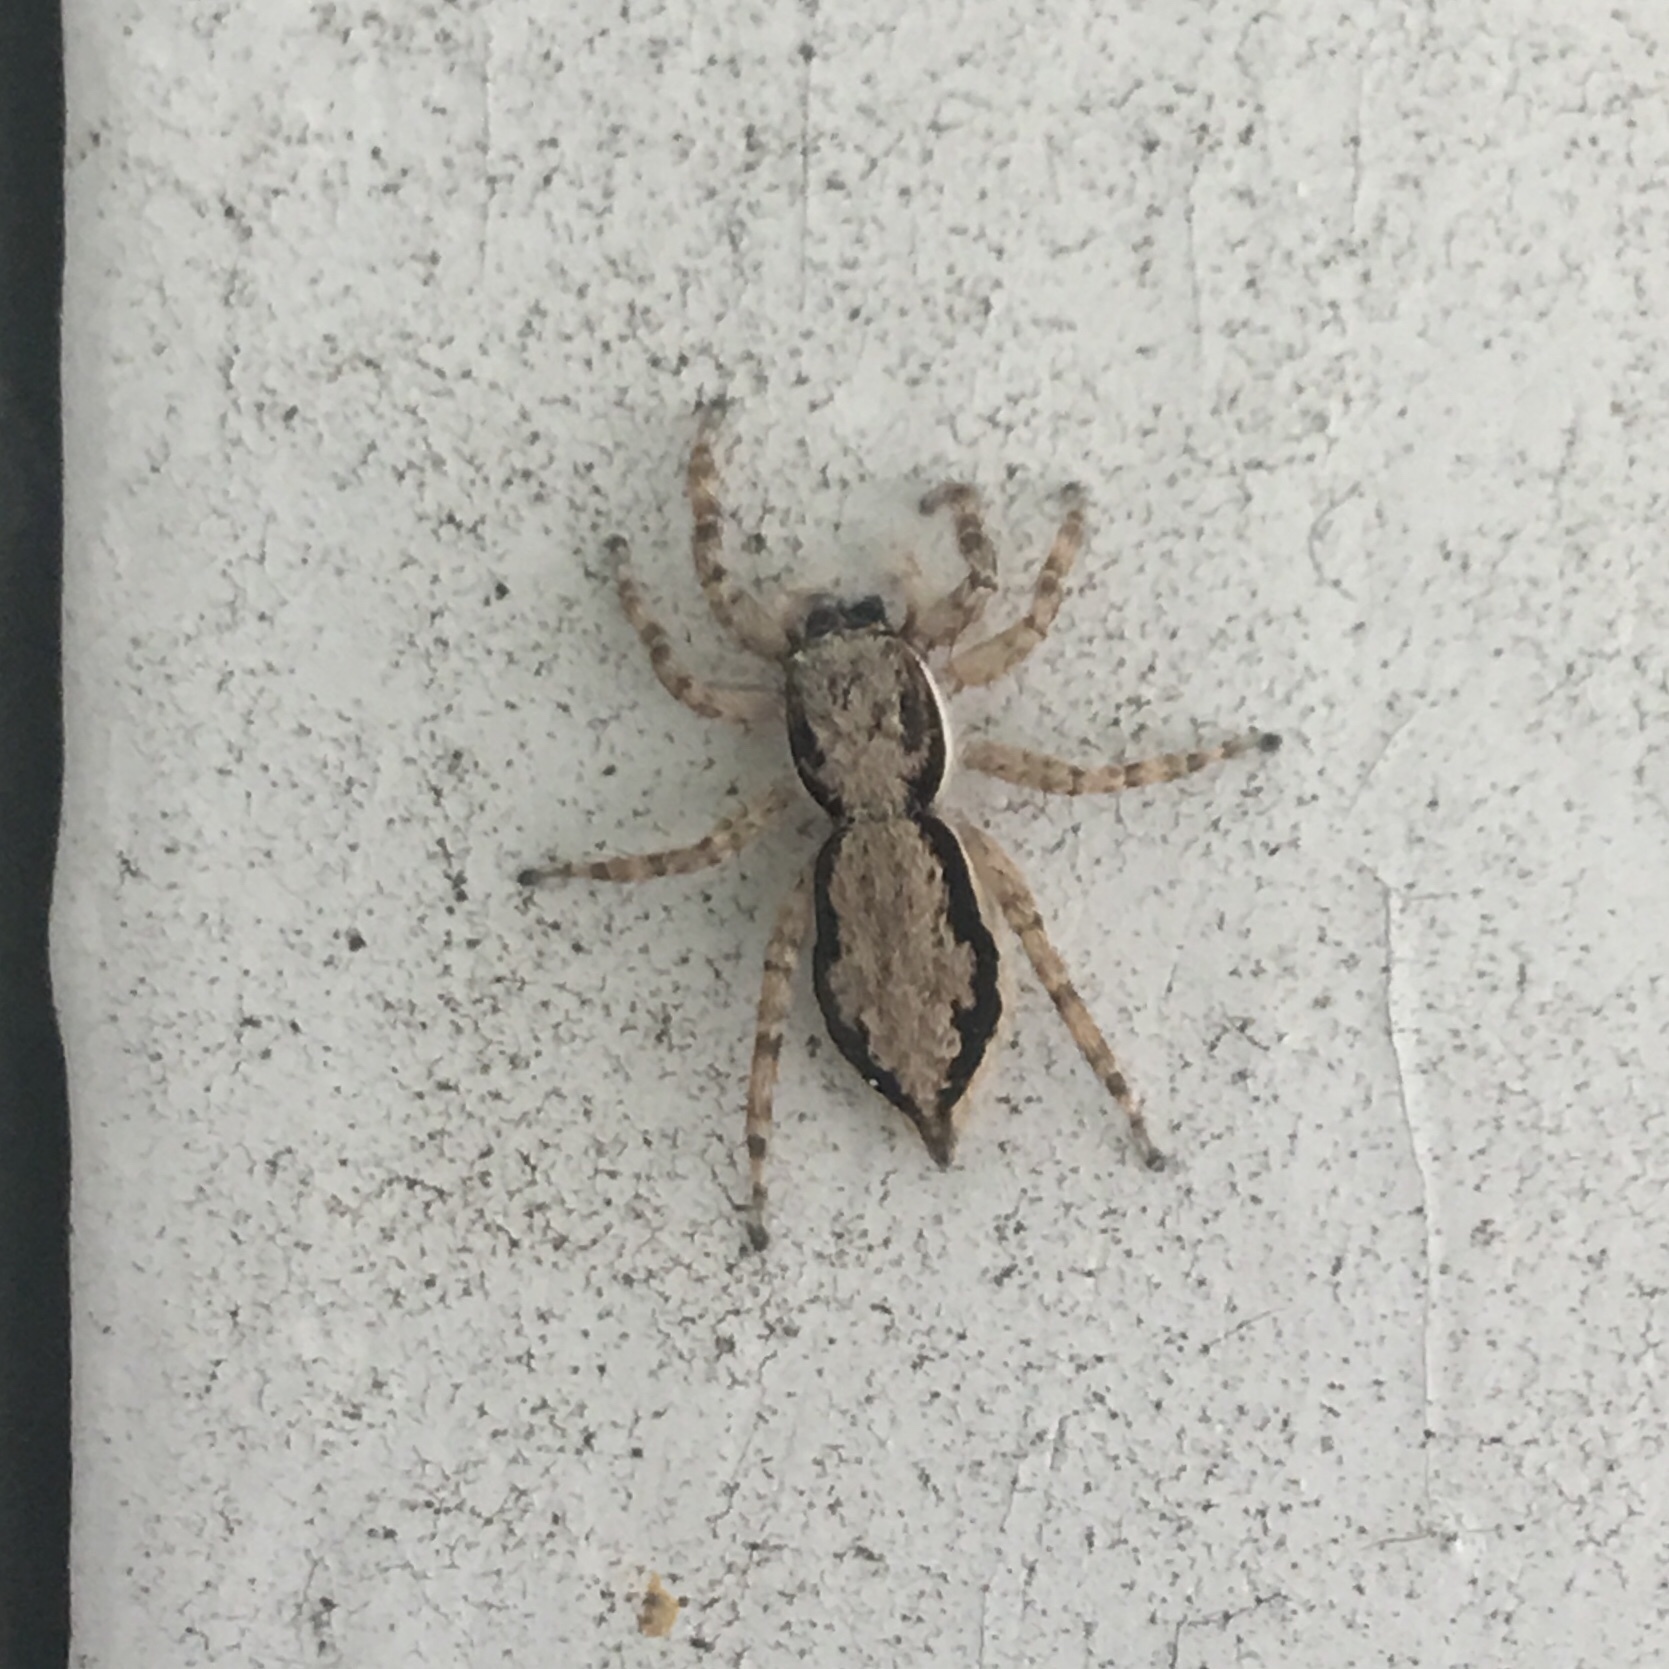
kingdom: Animalia
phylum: Arthropoda
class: Arachnida
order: Araneae
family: Salticidae
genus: Menemerus
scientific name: Menemerus bivittatus
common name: Gray wall jumper
